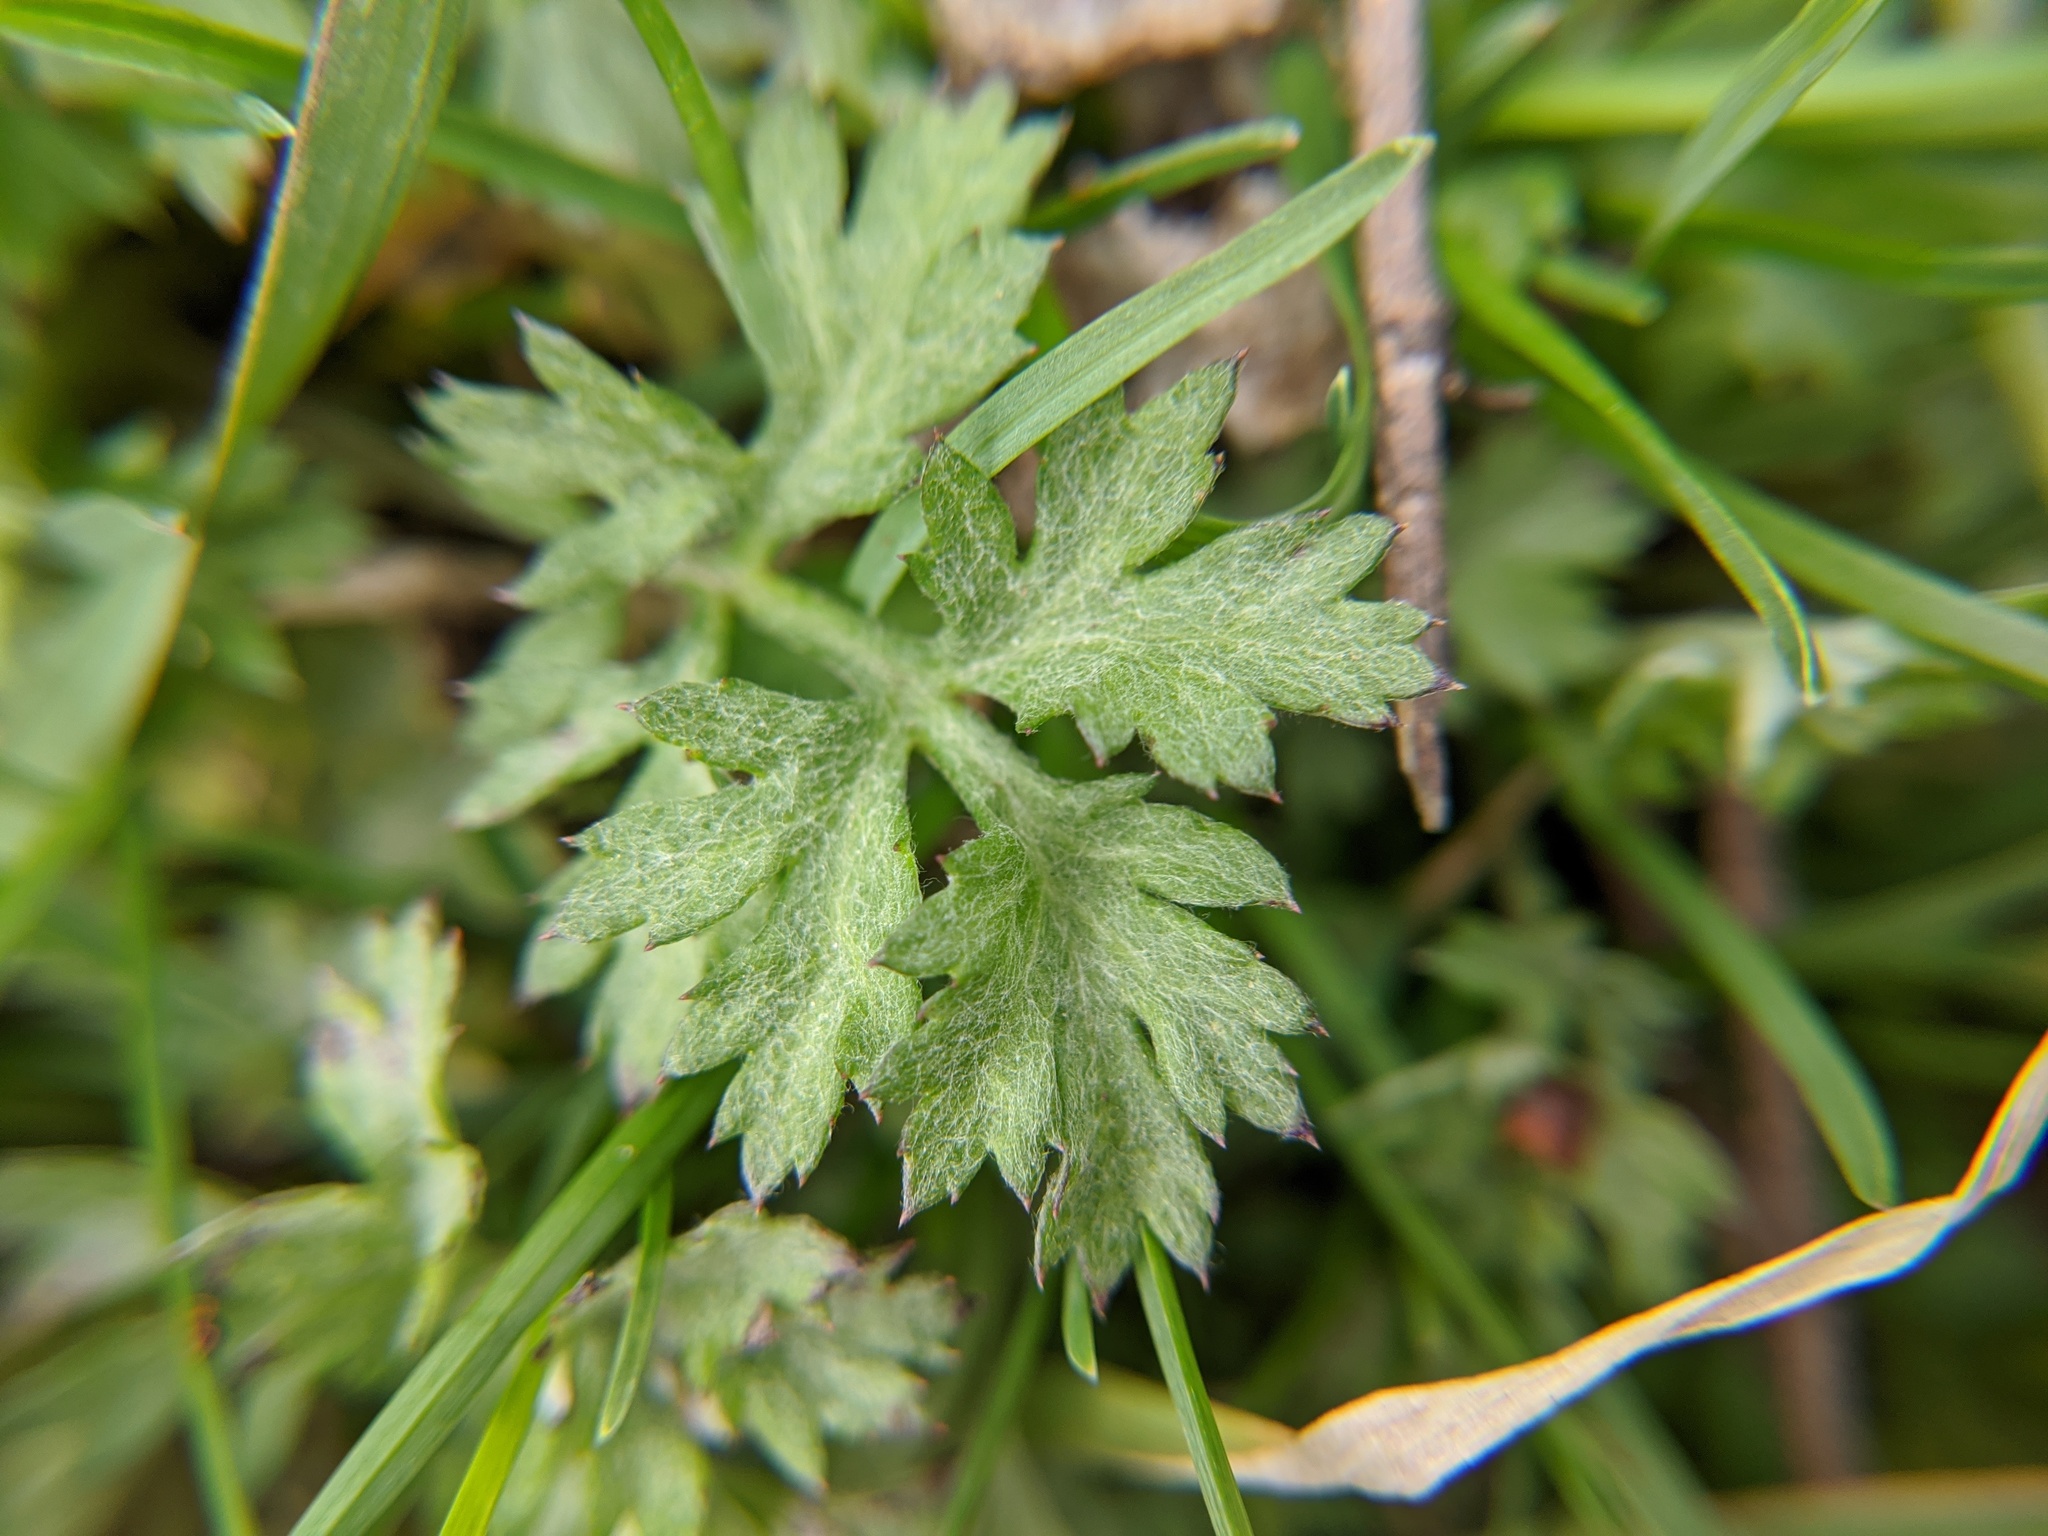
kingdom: Plantae
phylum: Tracheophyta
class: Magnoliopsida
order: Asterales
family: Asteraceae
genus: Artemisia
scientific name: Artemisia vulgaris
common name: Mugwort
